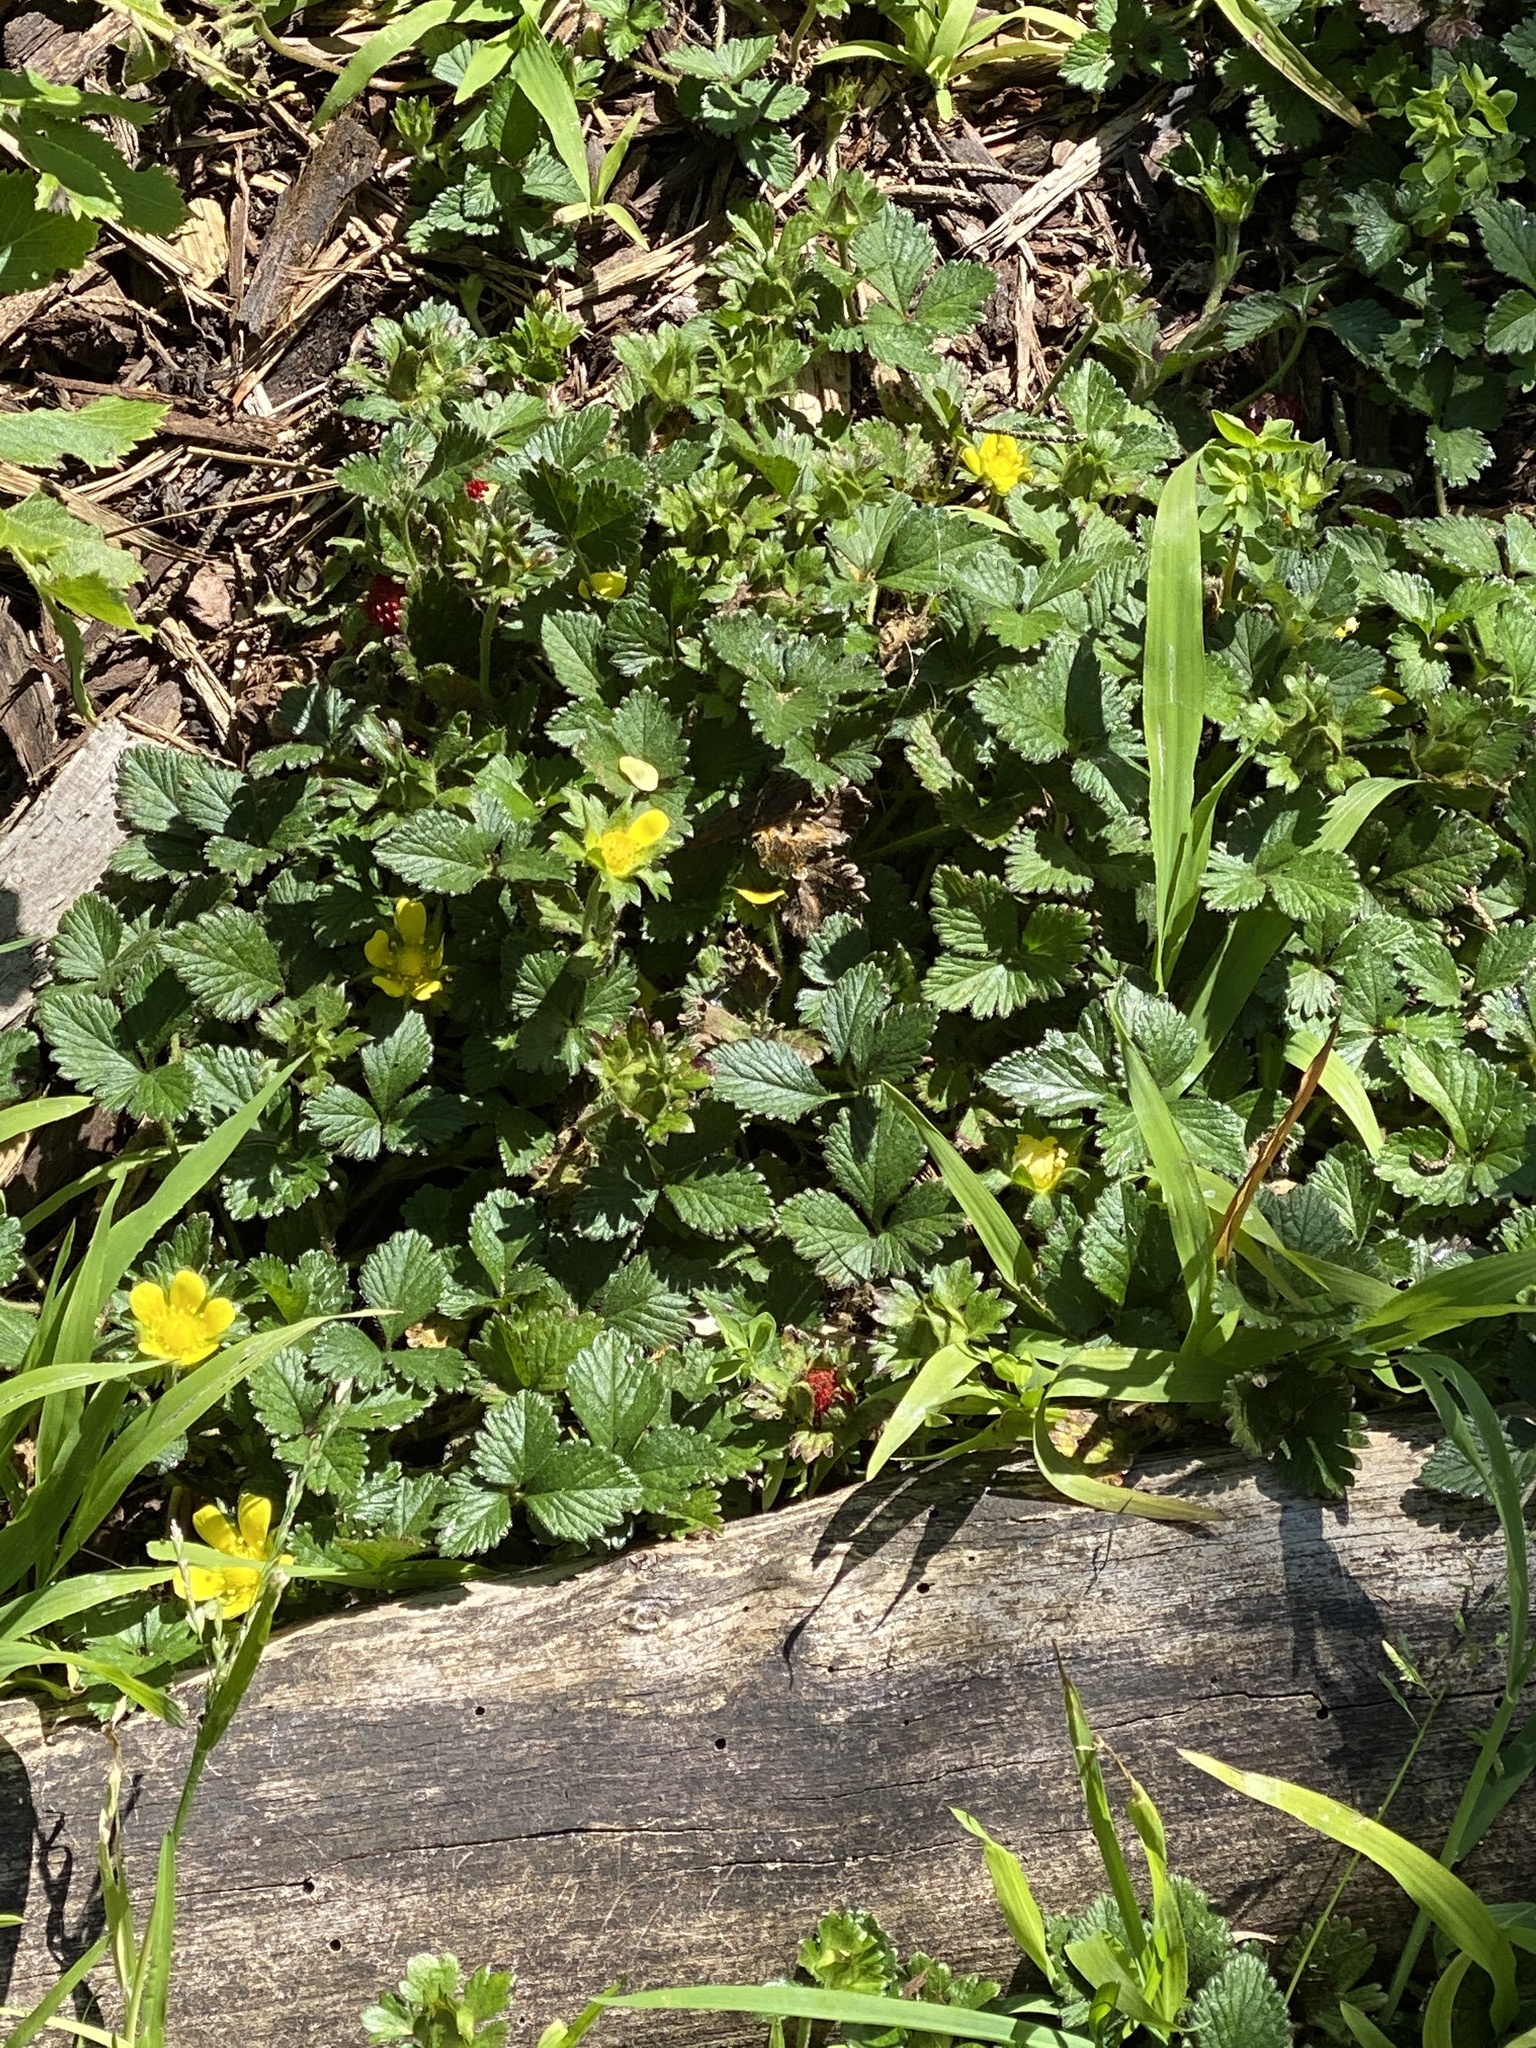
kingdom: Plantae
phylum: Tracheophyta
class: Magnoliopsida
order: Rosales
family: Rosaceae
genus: Potentilla
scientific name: Potentilla indica
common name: Yellow-flowered strawberry
